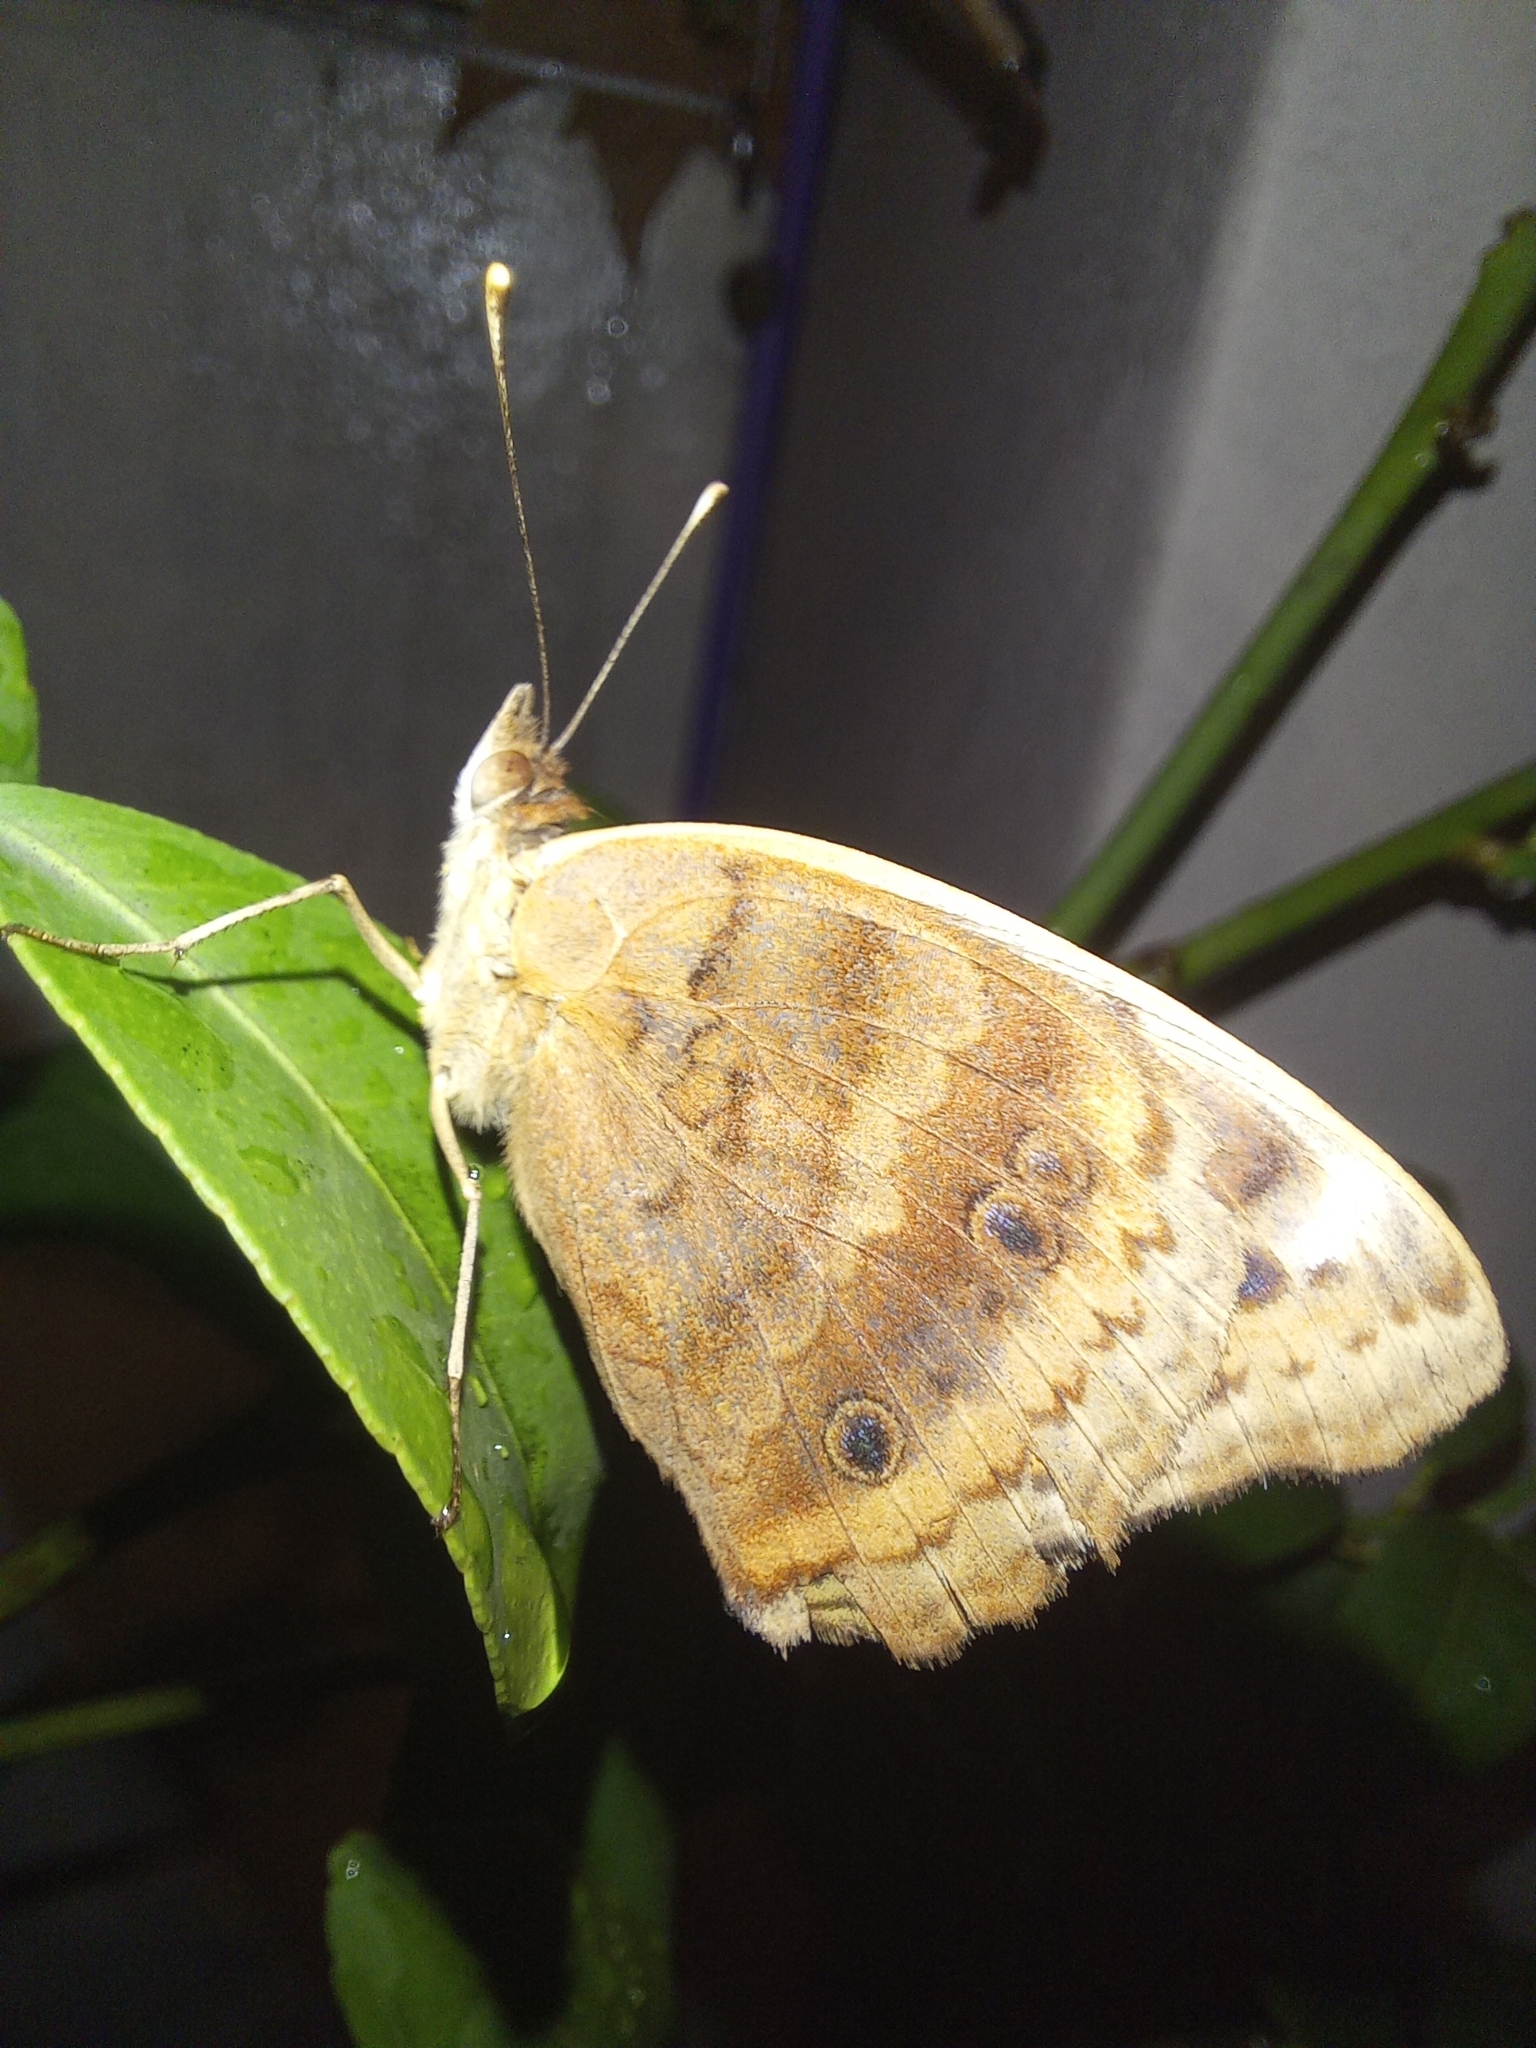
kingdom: Animalia
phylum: Arthropoda
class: Insecta
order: Lepidoptera
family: Nymphalidae
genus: Junonia
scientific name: Junonia lavinia
